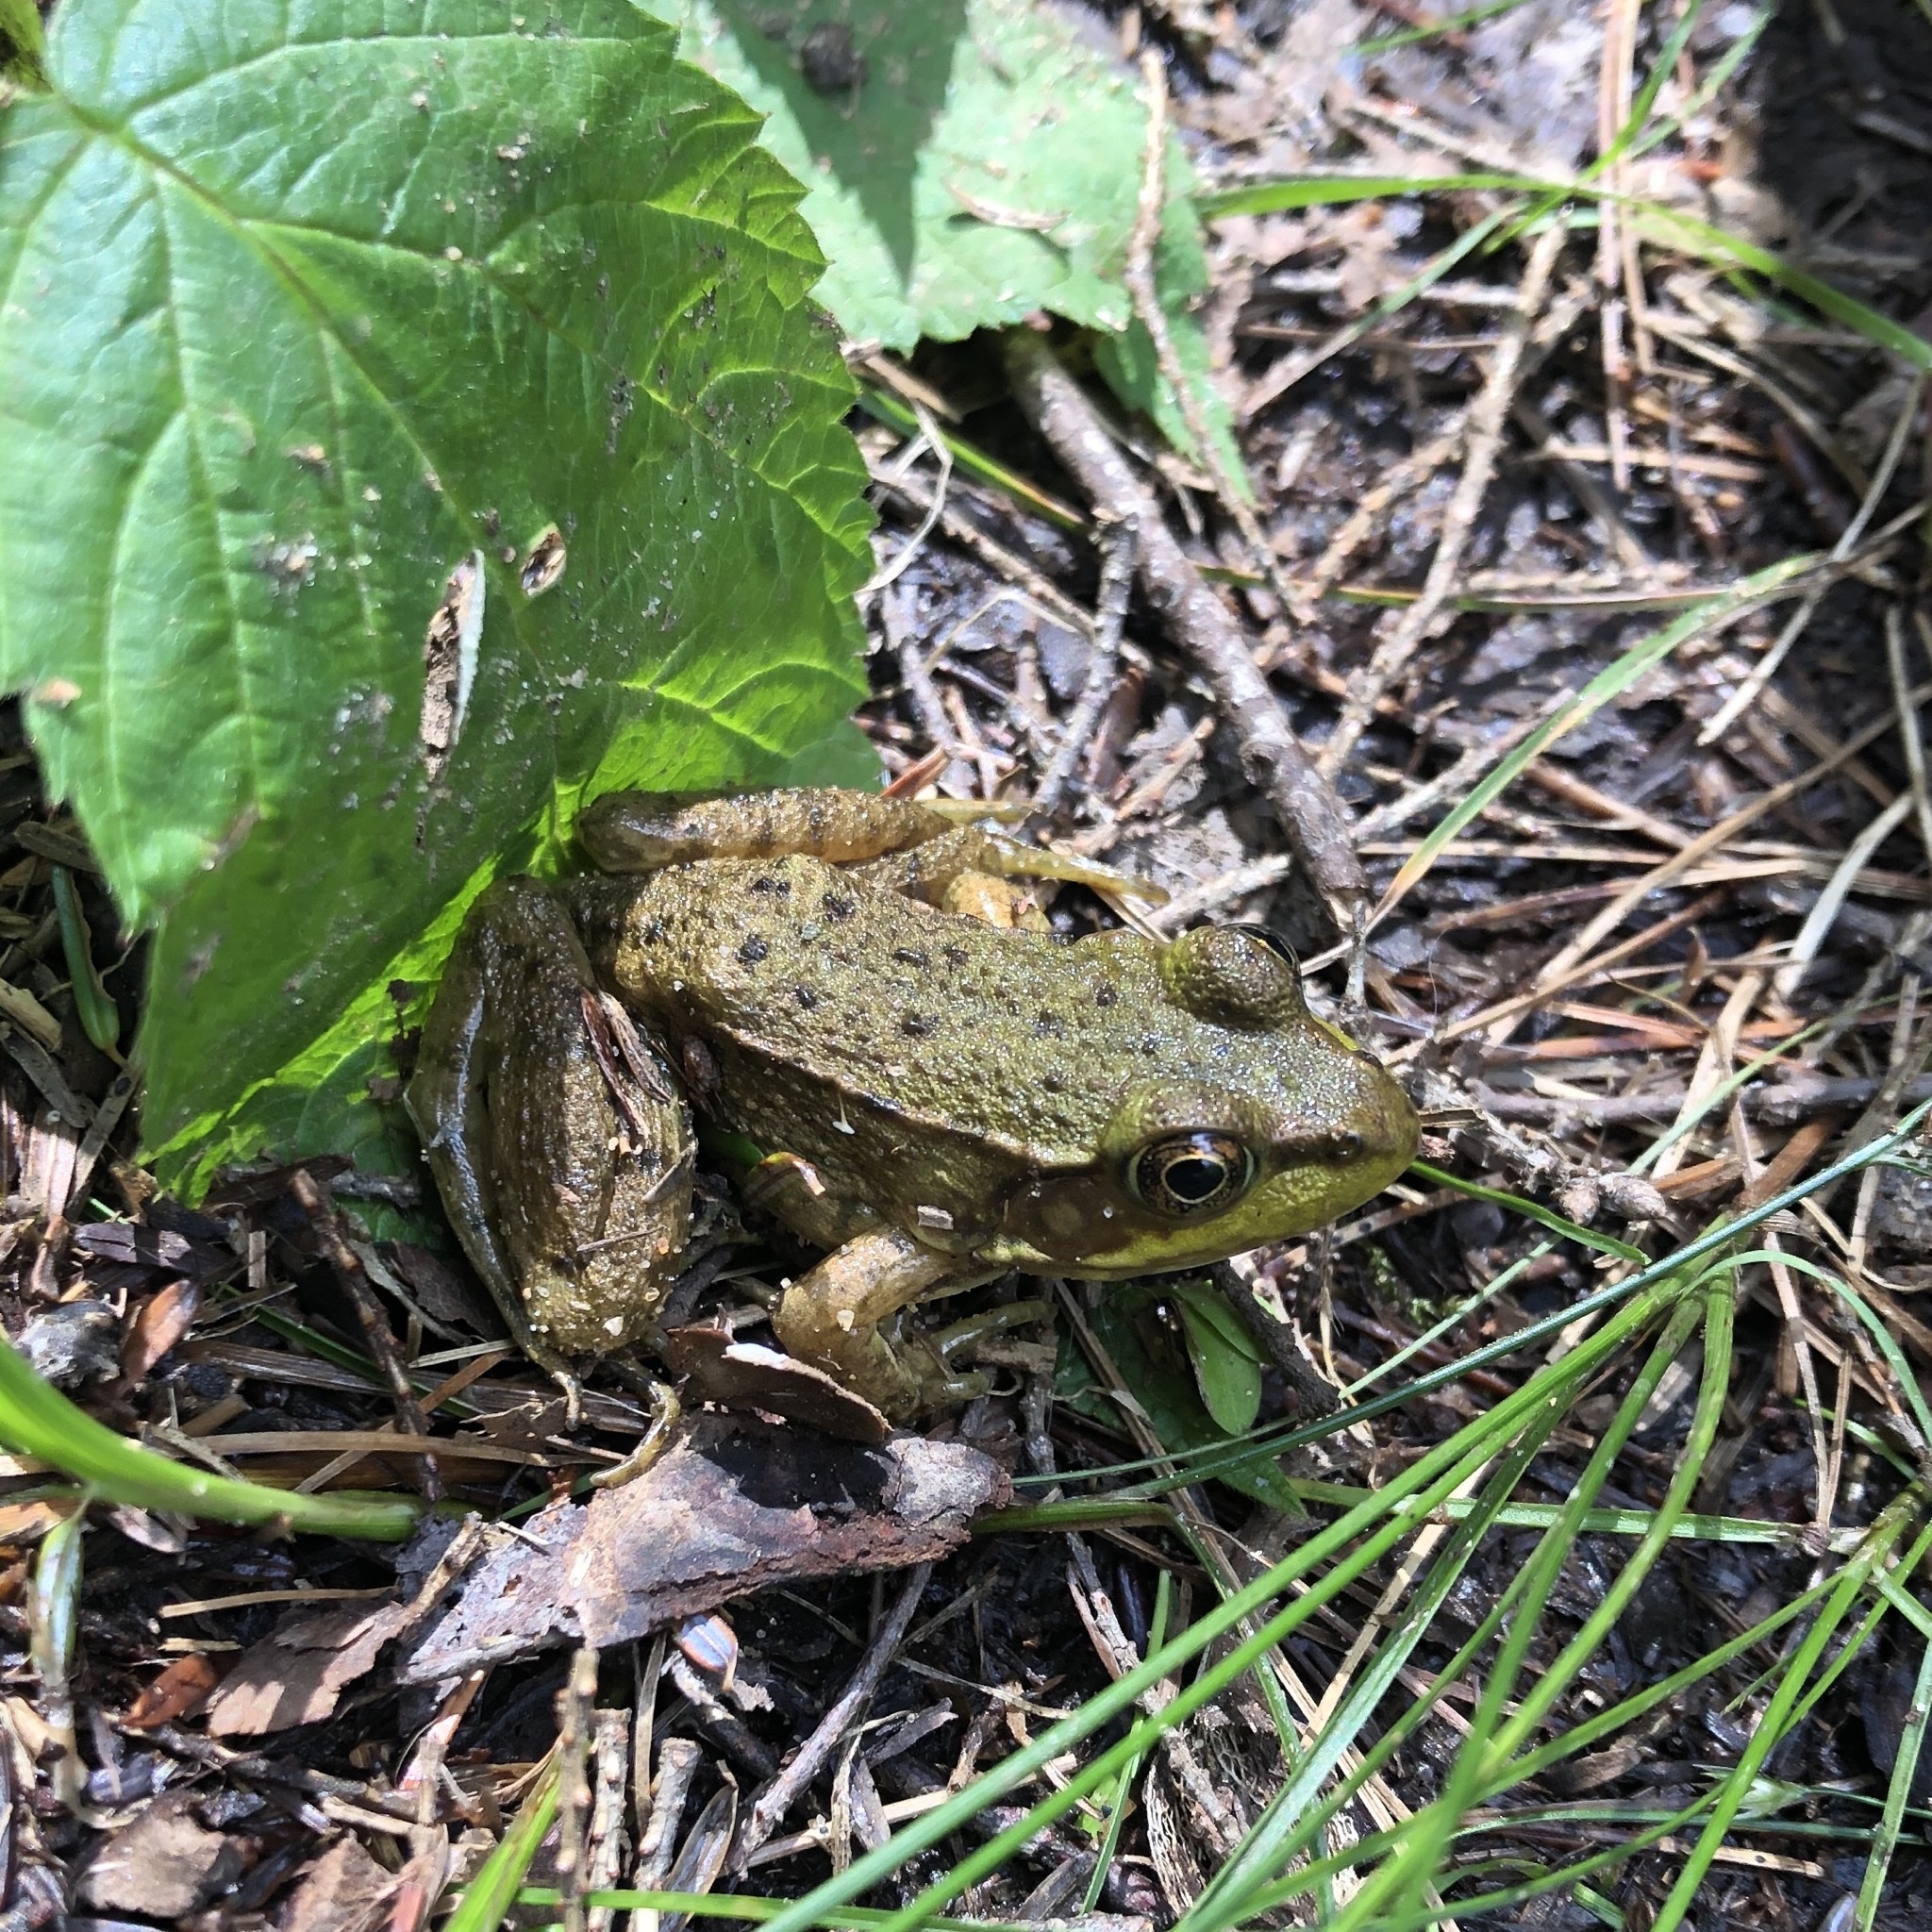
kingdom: Animalia
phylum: Chordata
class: Amphibia
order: Anura
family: Ranidae
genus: Lithobates
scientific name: Lithobates clamitans
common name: Green frog
